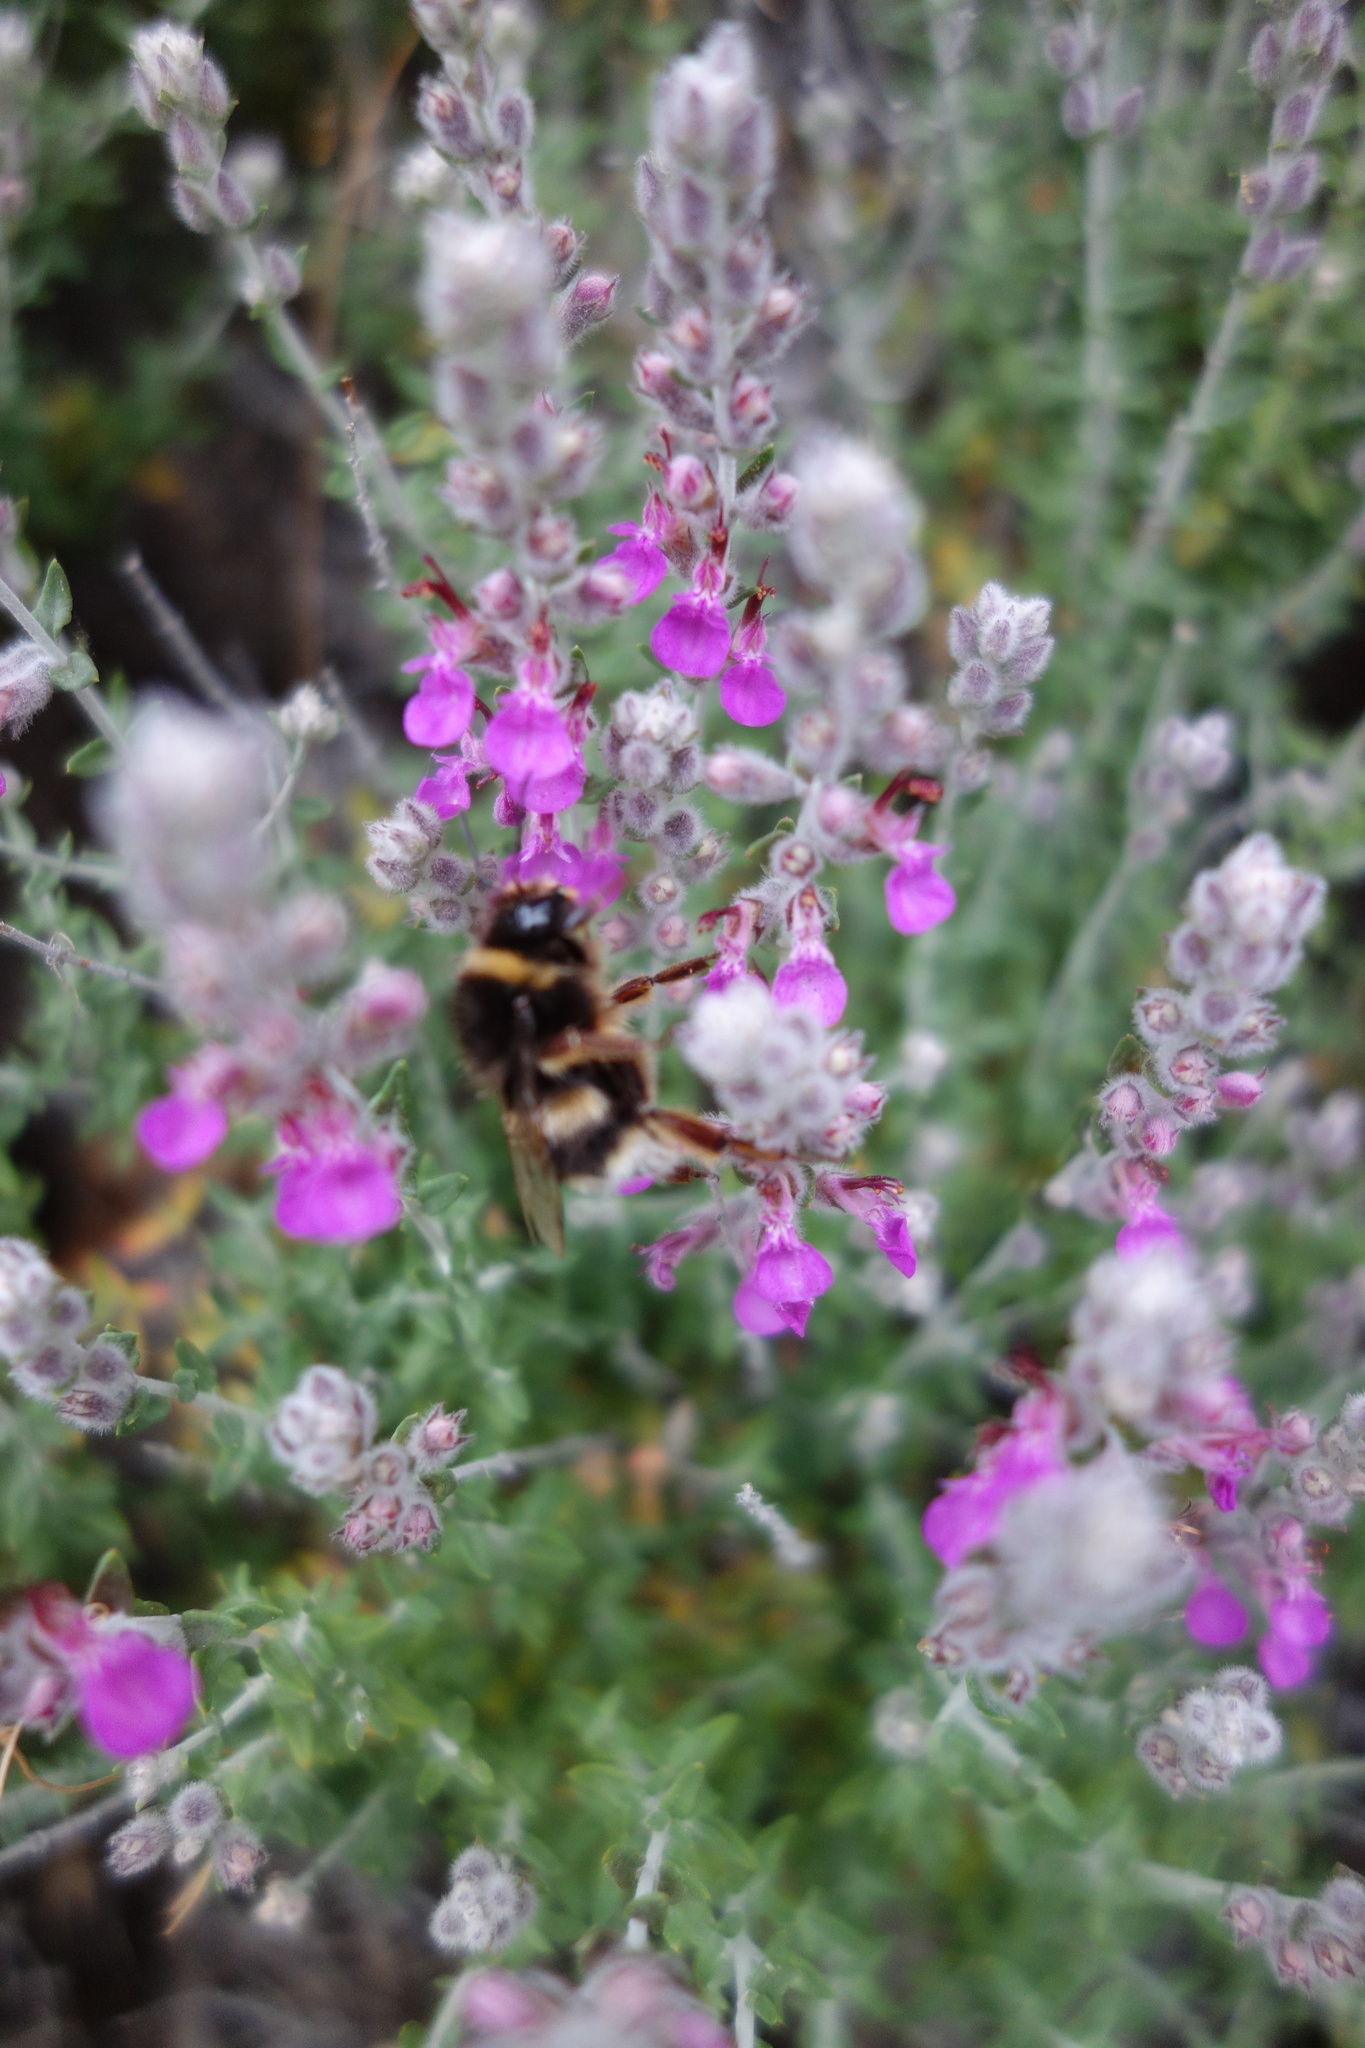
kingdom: Plantae
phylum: Tracheophyta
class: Magnoliopsida
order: Lamiales
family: Lamiaceae
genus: Teucrium
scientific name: Teucrium marum
